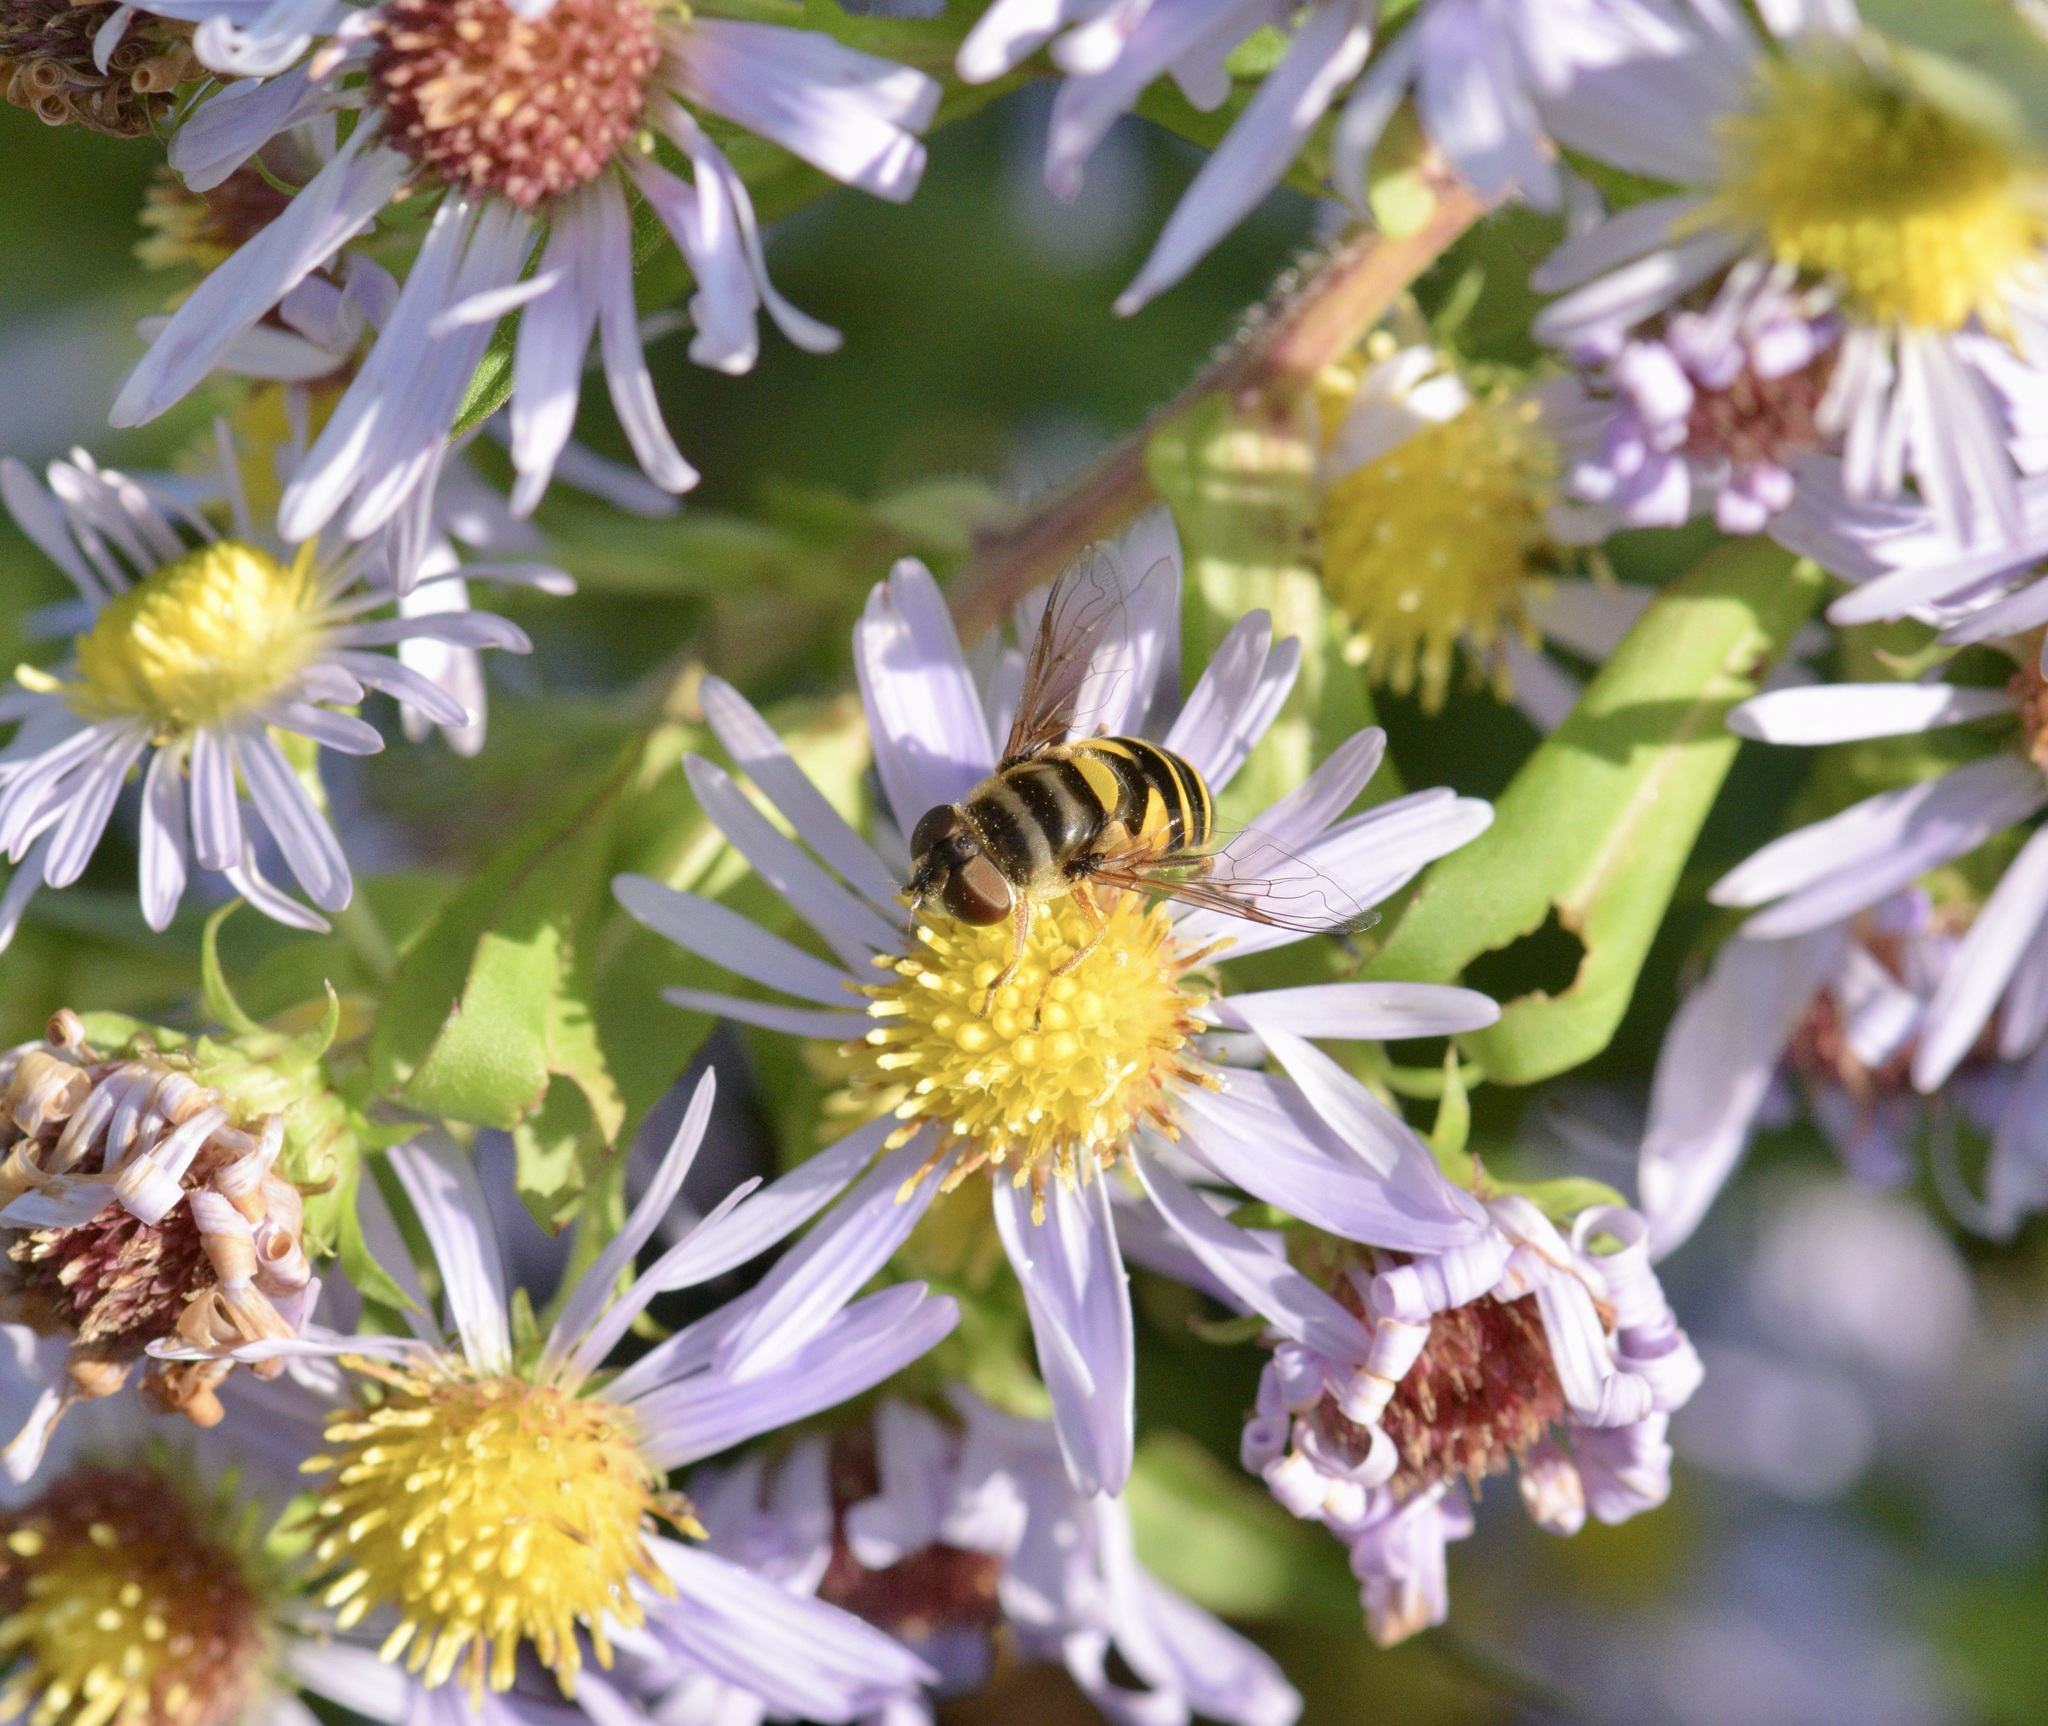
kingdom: Animalia
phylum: Arthropoda
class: Insecta
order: Diptera
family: Syrphidae
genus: Eristalis
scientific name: Eristalis transversa
